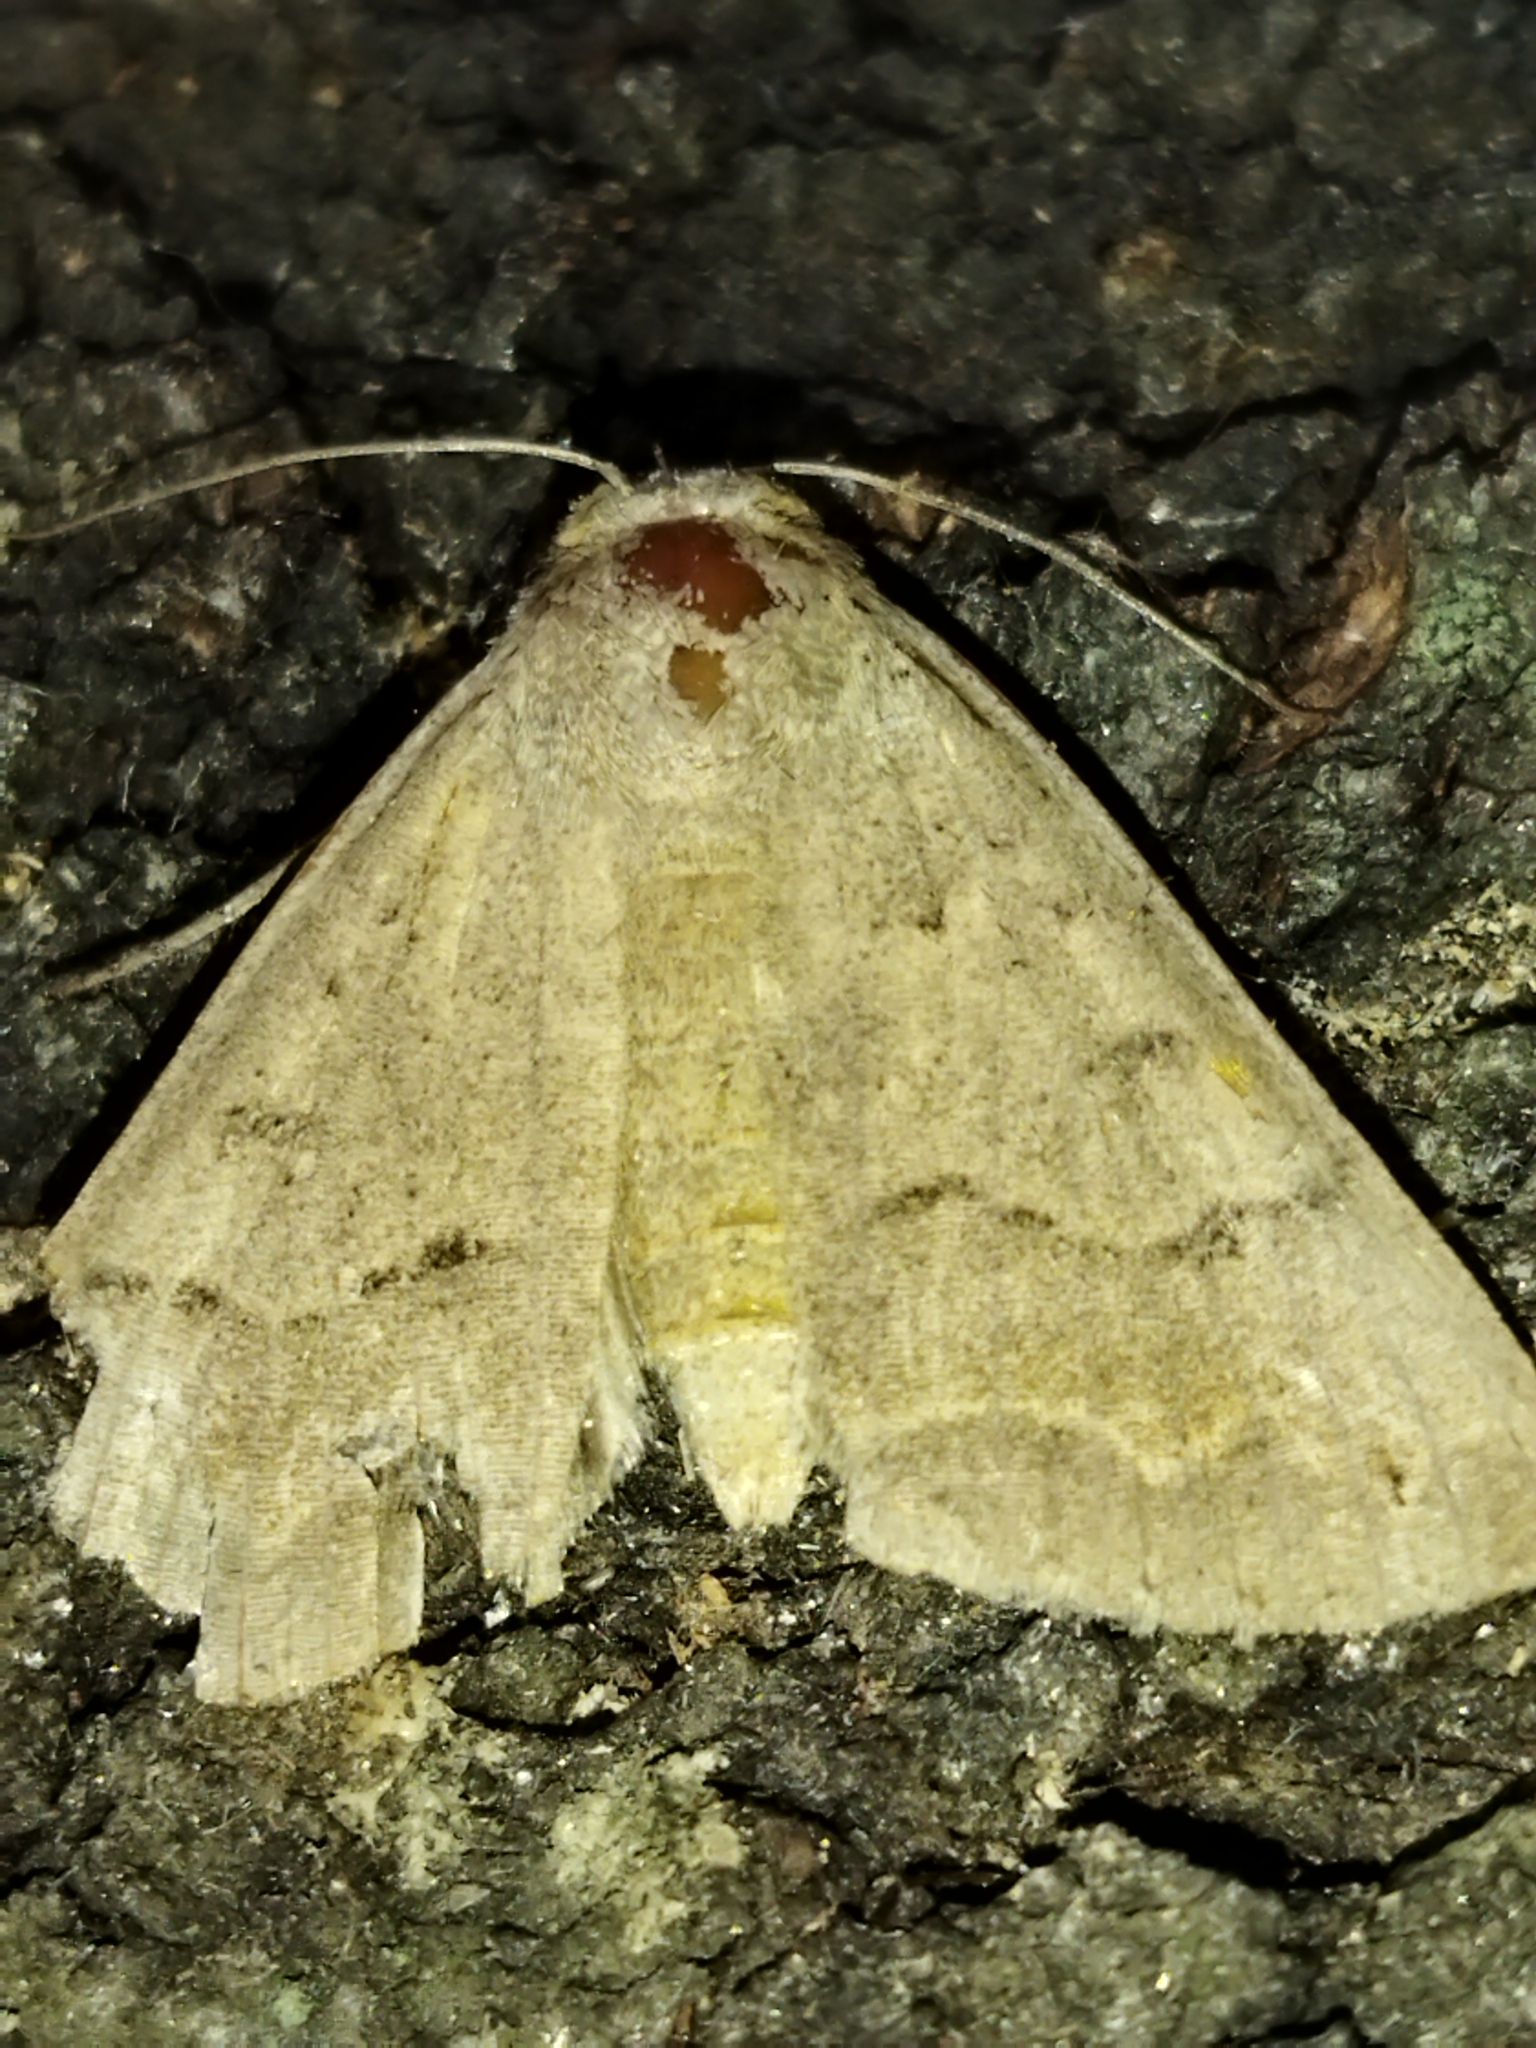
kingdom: Animalia
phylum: Arthropoda
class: Insecta
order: Lepidoptera
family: Erebidae
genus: Clytie
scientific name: Clytie syriaca
